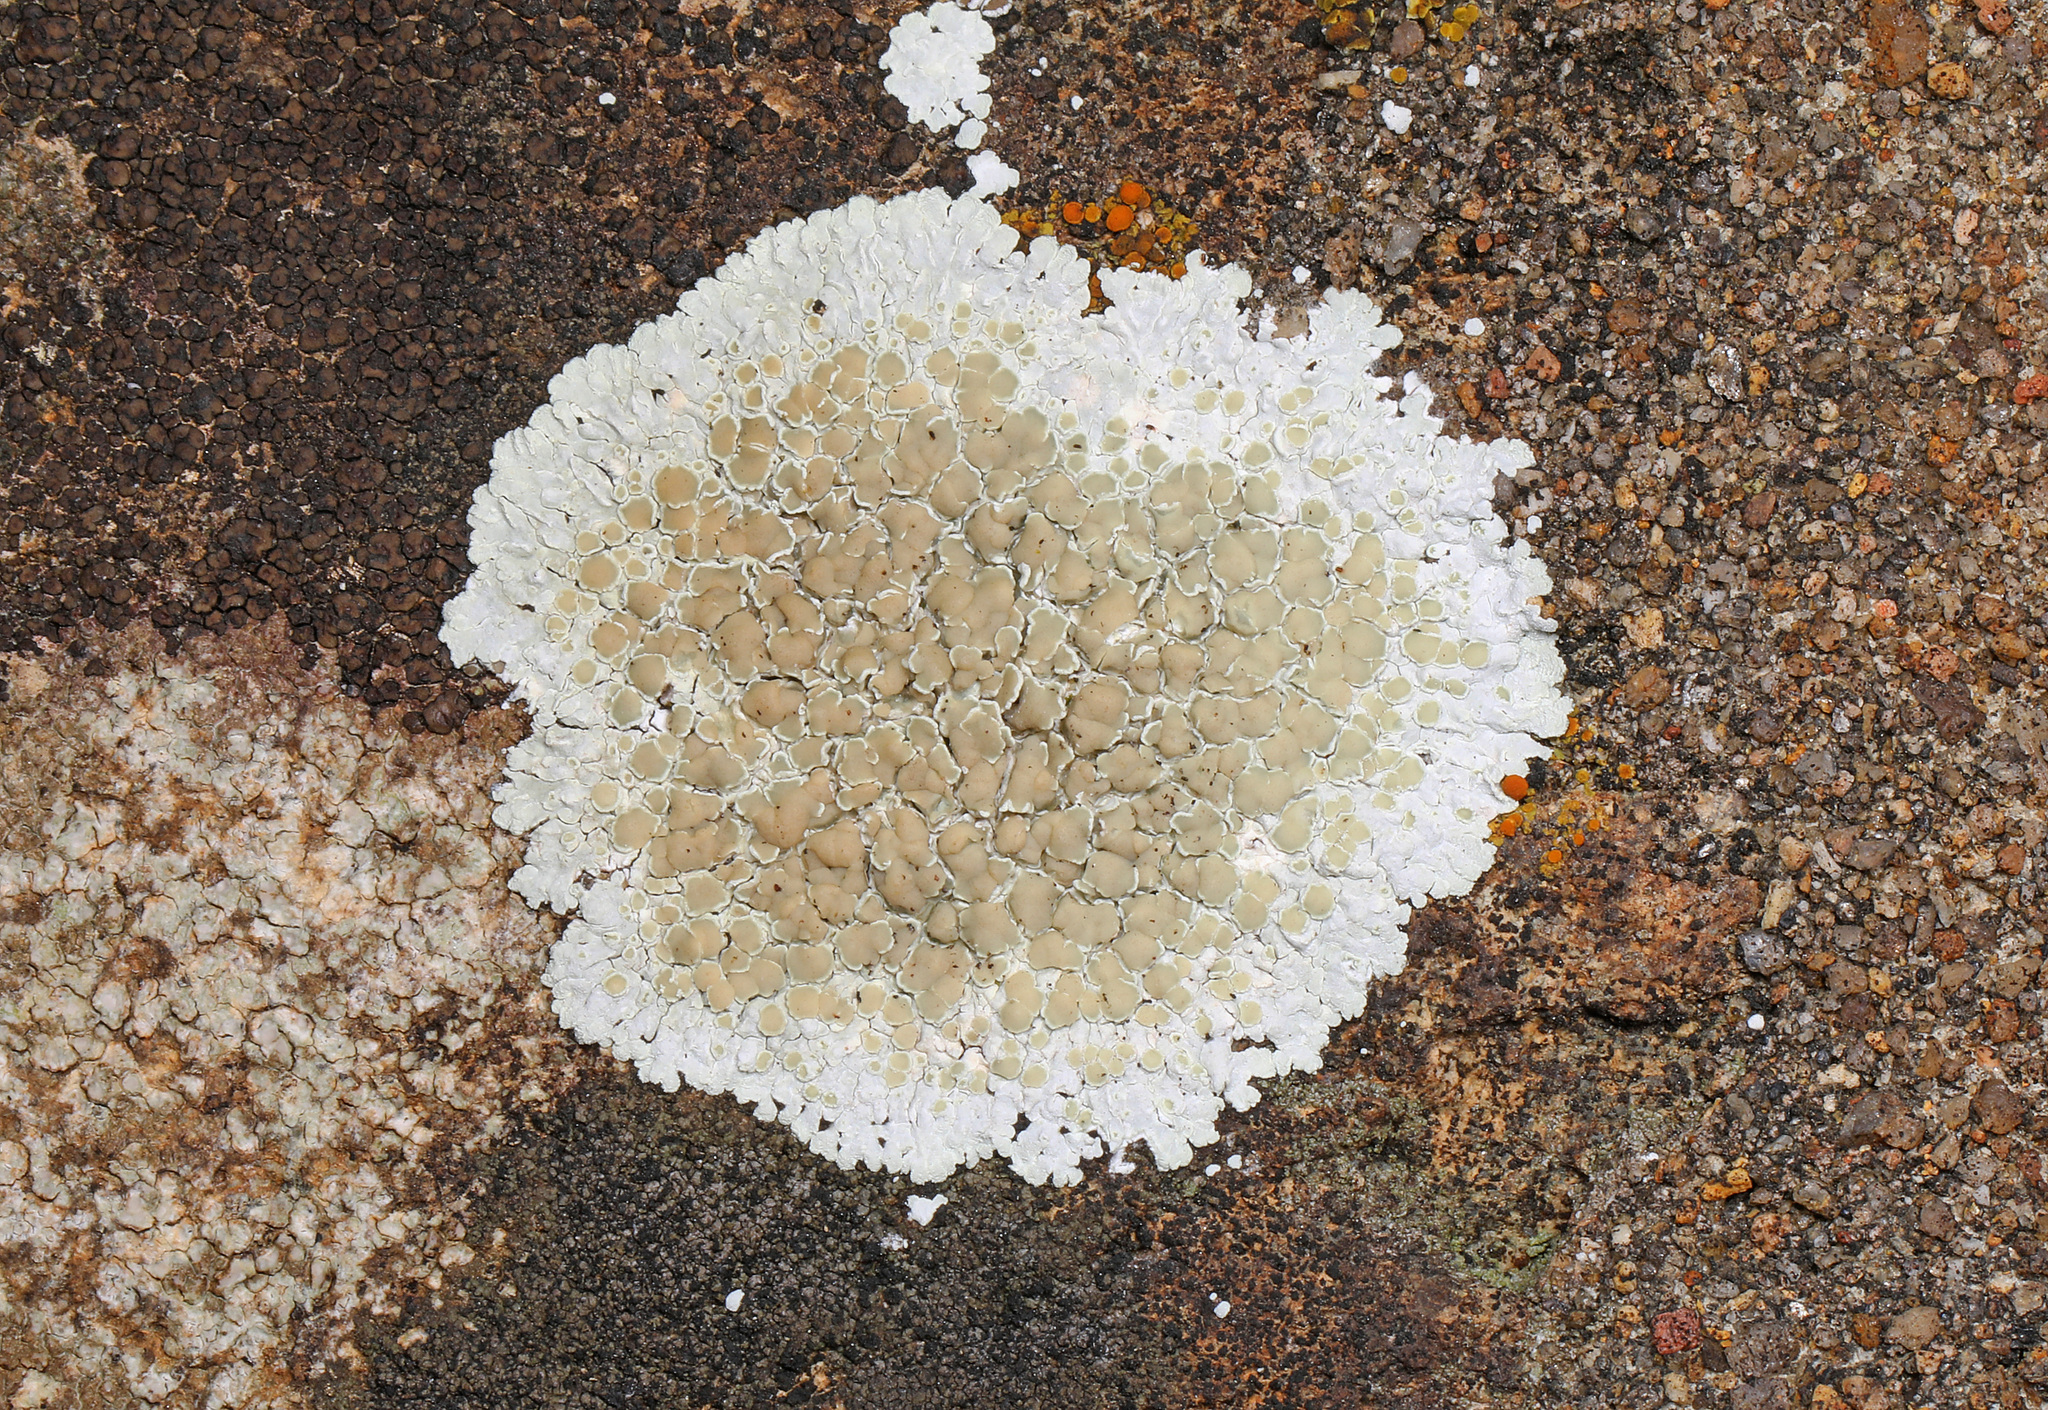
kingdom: Fungi
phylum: Ascomycota
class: Lecanoromycetes
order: Lecanorales
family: Lecanoraceae
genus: Protoparmeliopsis
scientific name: Protoparmeliopsis muralis
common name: Stonewall rim lichen
